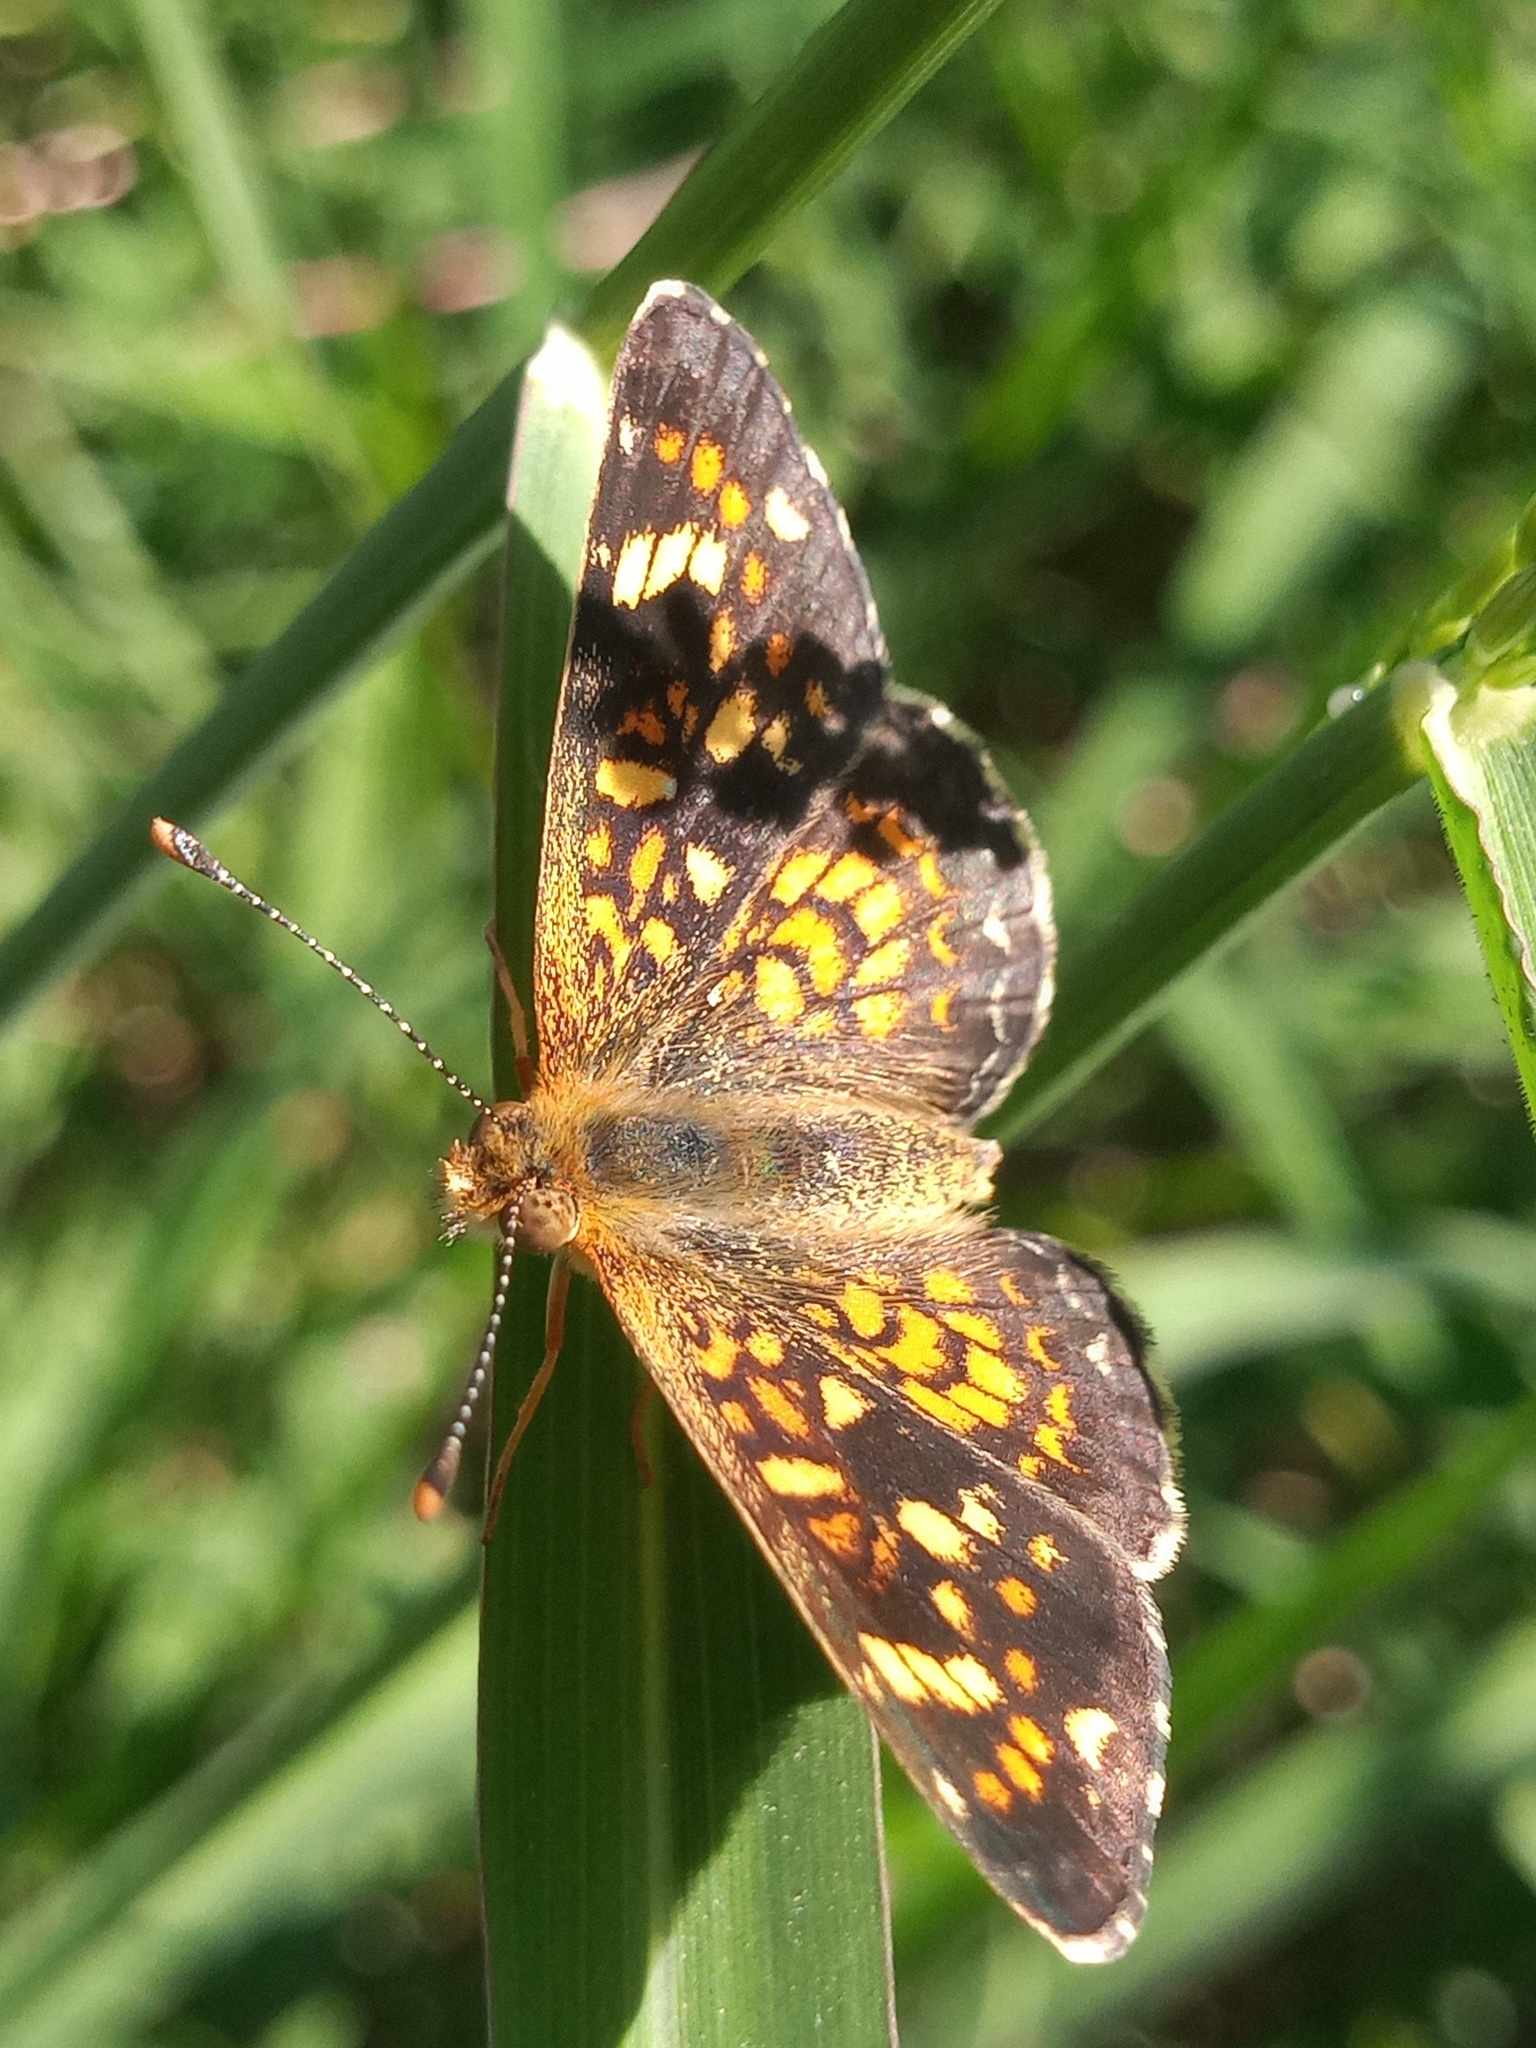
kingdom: Animalia
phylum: Arthropoda
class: Insecta
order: Lepidoptera
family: Nymphalidae
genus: Phyciodes
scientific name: Phyciodes picta
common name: Painted crescent
